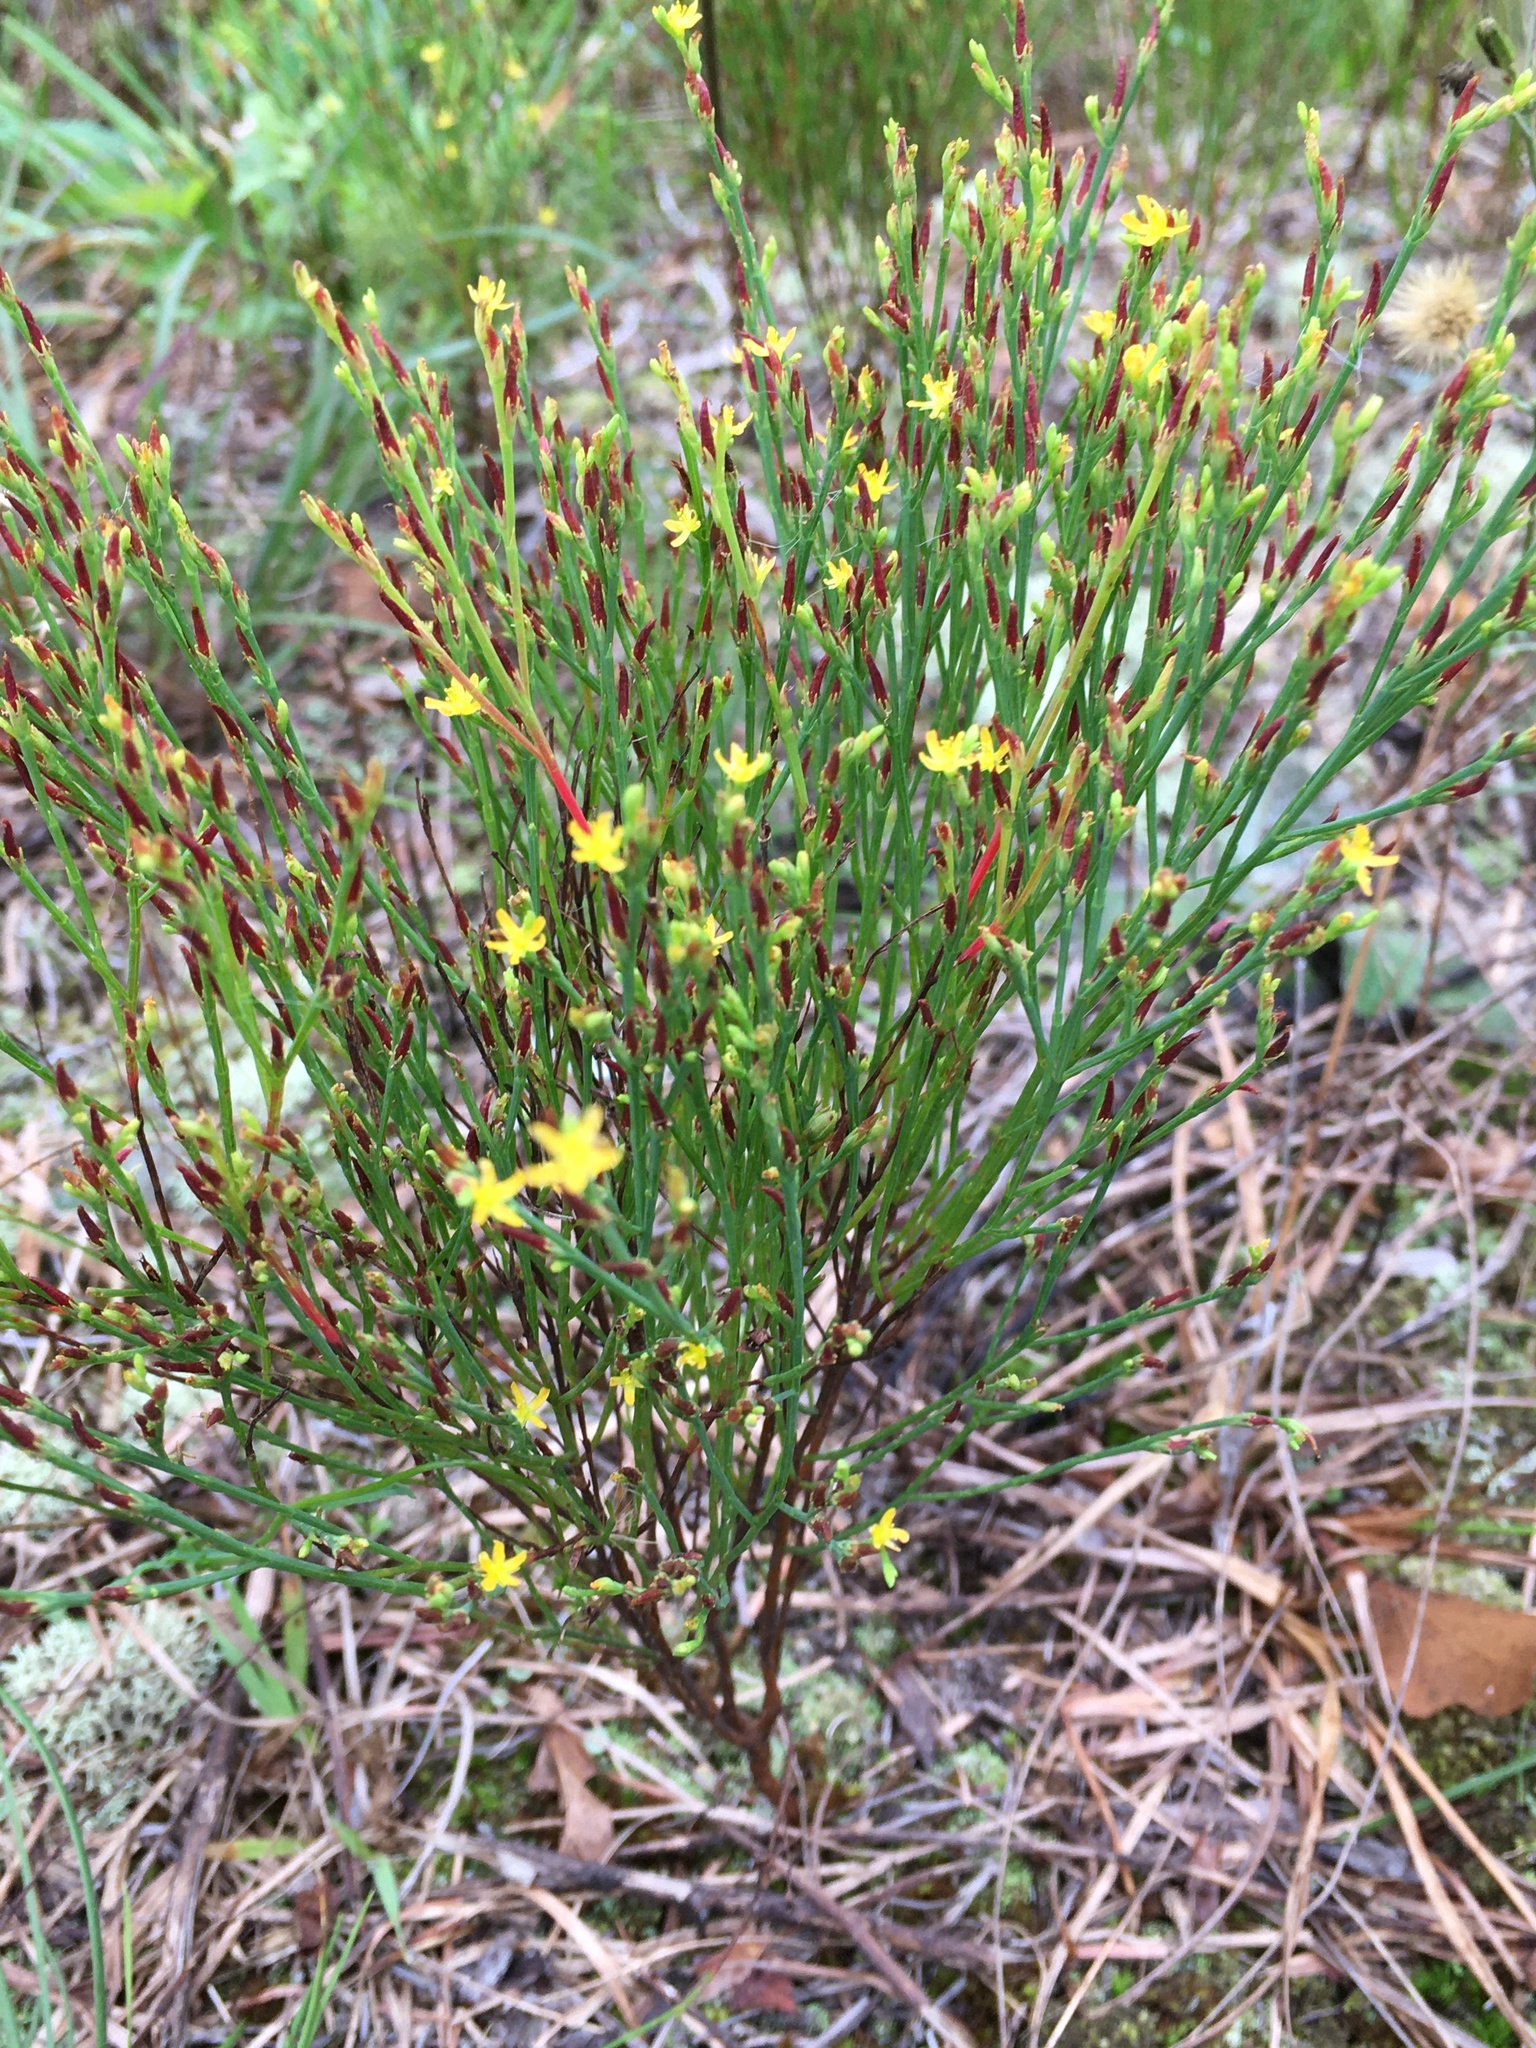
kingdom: Plantae
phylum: Tracheophyta
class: Magnoliopsida
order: Malpighiales
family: Hypericaceae
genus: Hypericum
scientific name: Hypericum gentianoides
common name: Gentian-leaved st. john's-wort
